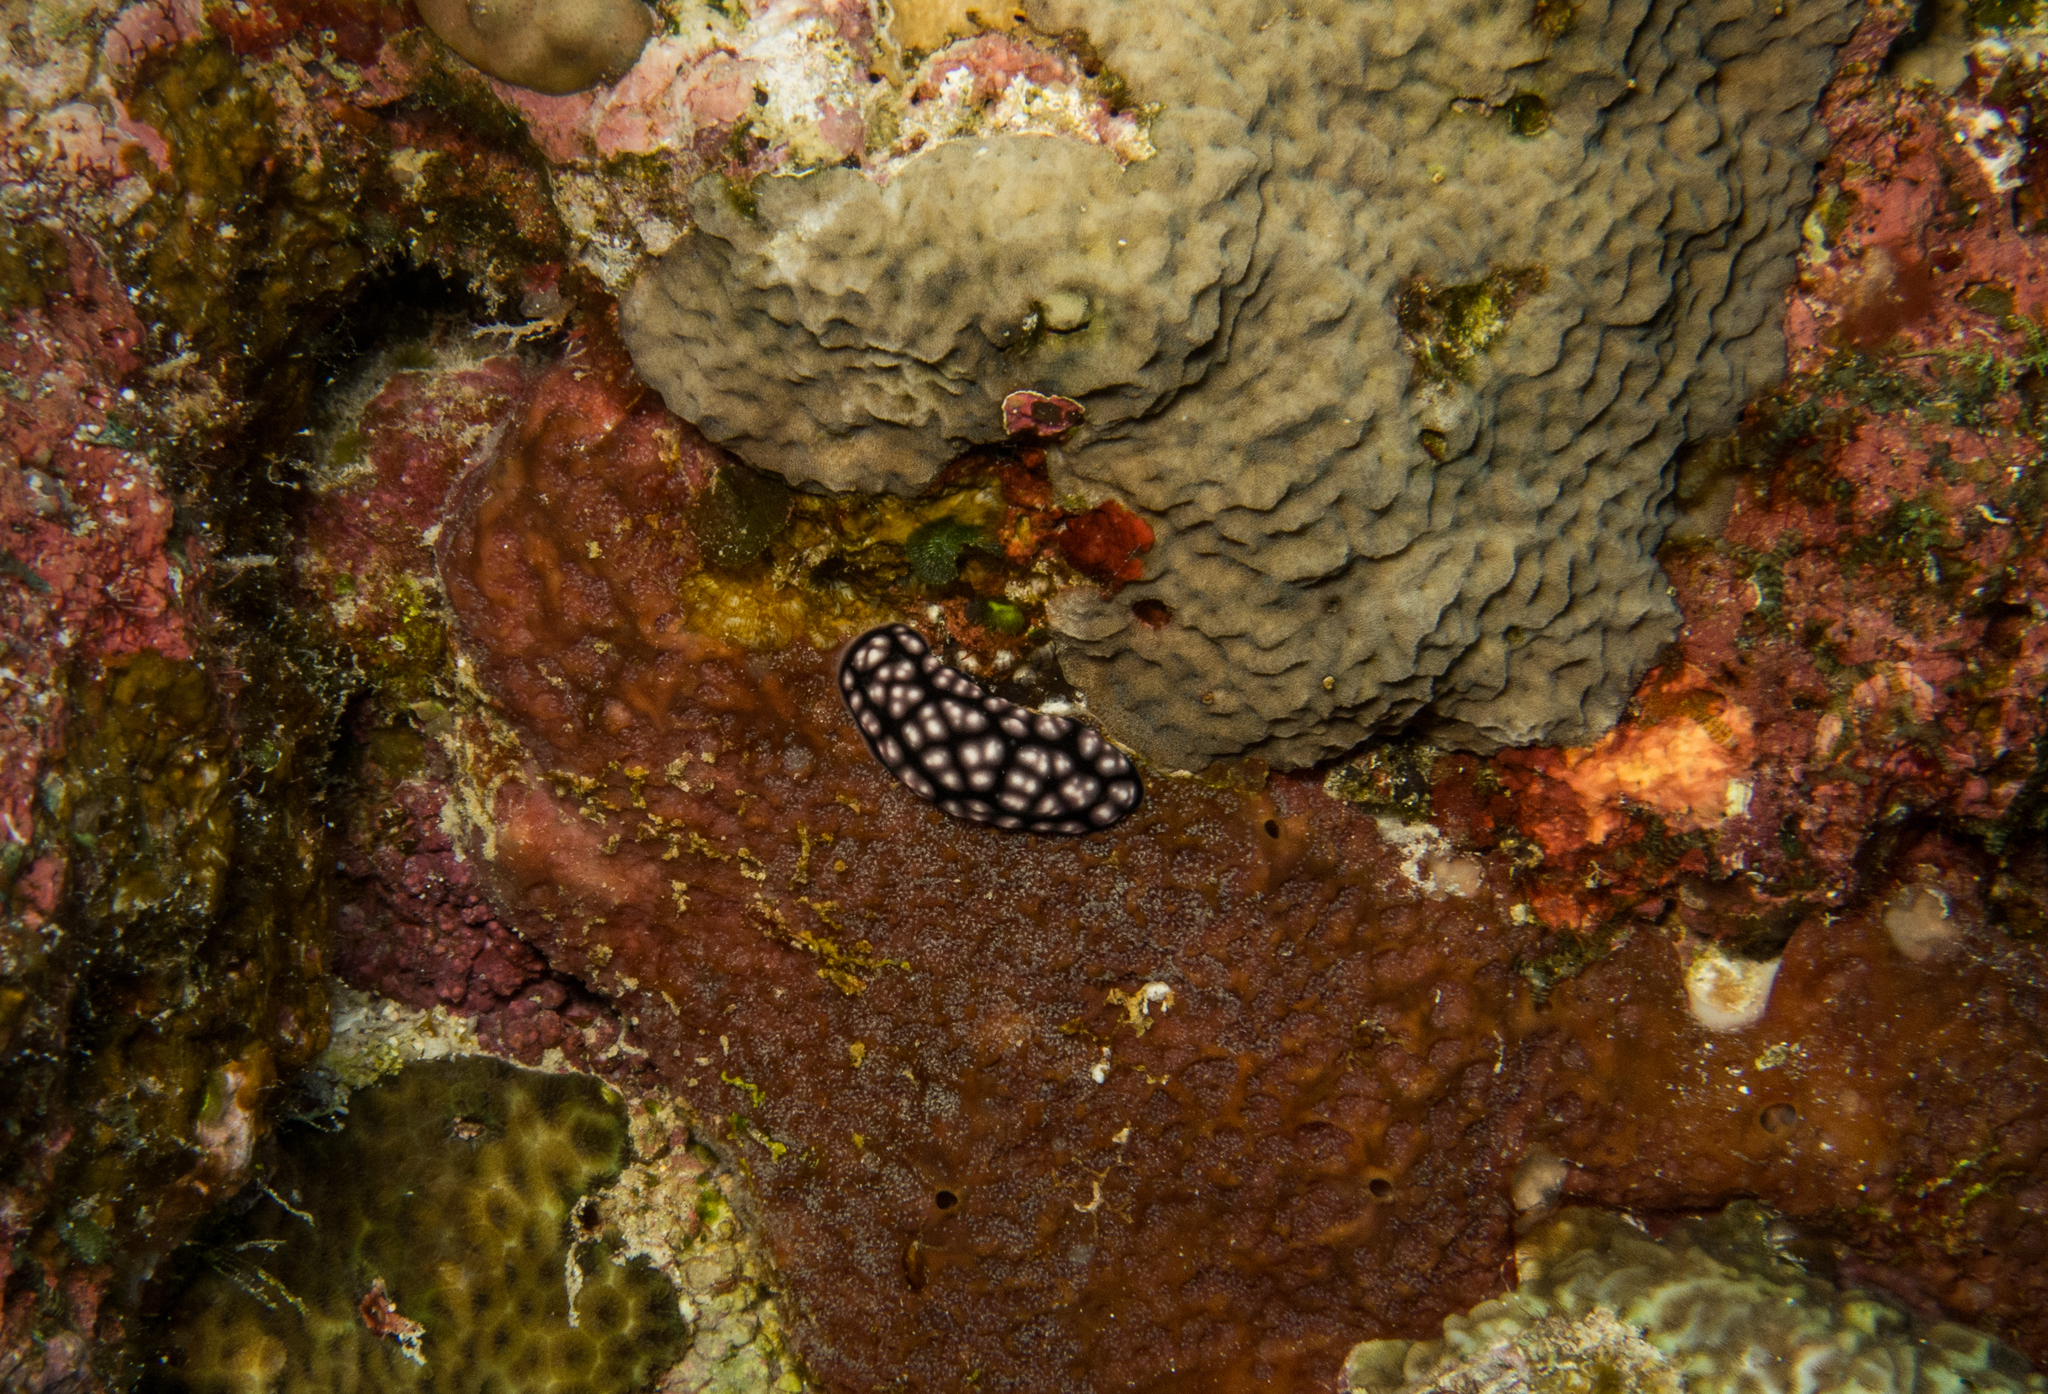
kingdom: Animalia
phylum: Mollusca
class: Gastropoda
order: Nudibranchia
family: Phyllidiidae
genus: Phyllidiella
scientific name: Phyllidiella pustulosa
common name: Pustular phyllidia
